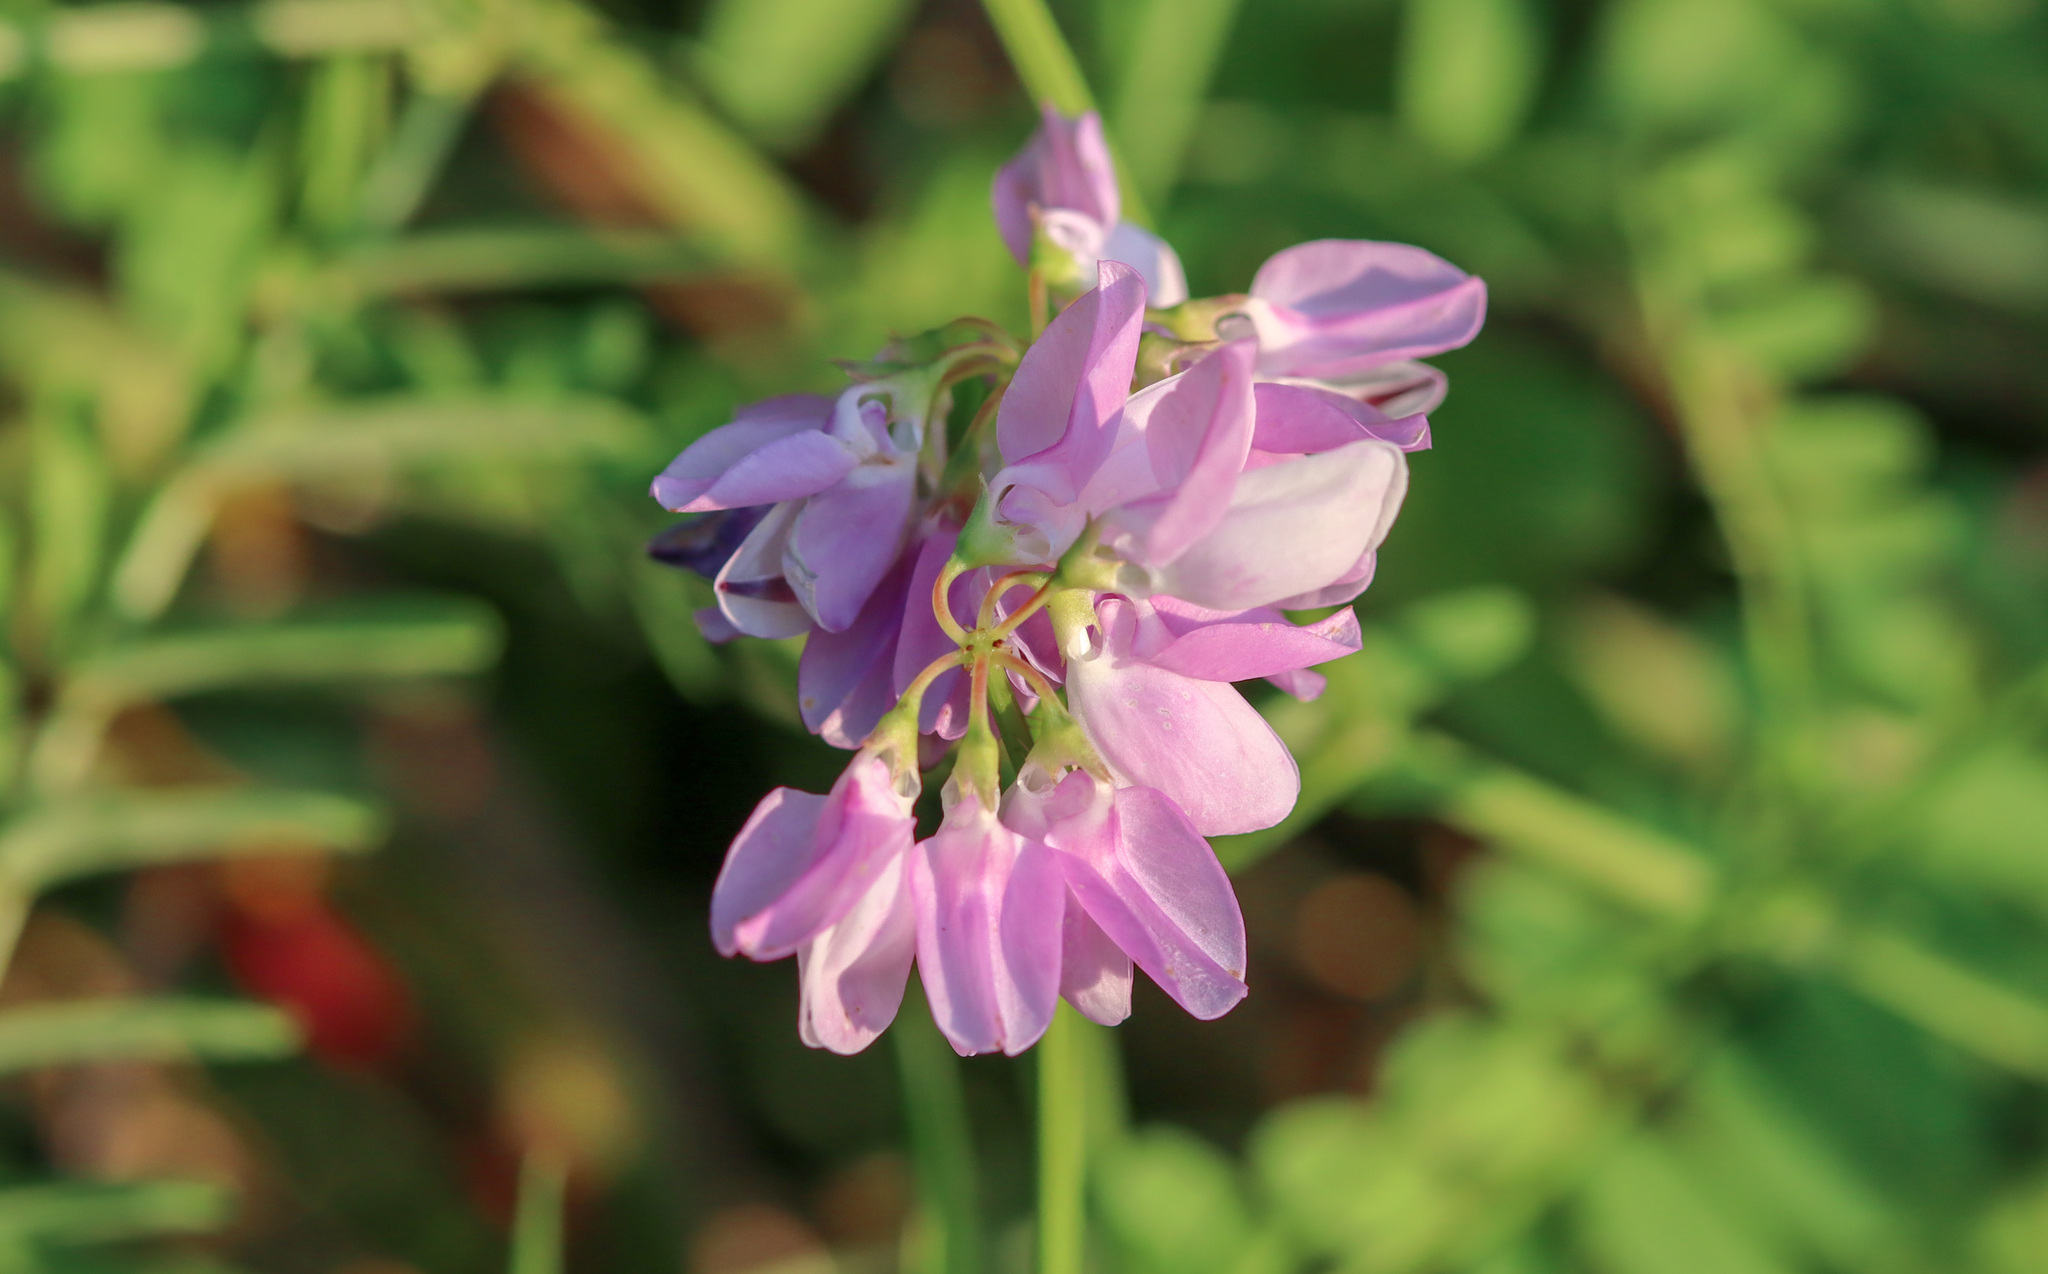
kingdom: Plantae
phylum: Tracheophyta
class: Magnoliopsida
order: Fabales
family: Fabaceae
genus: Coronilla
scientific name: Coronilla varia
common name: Crownvetch
